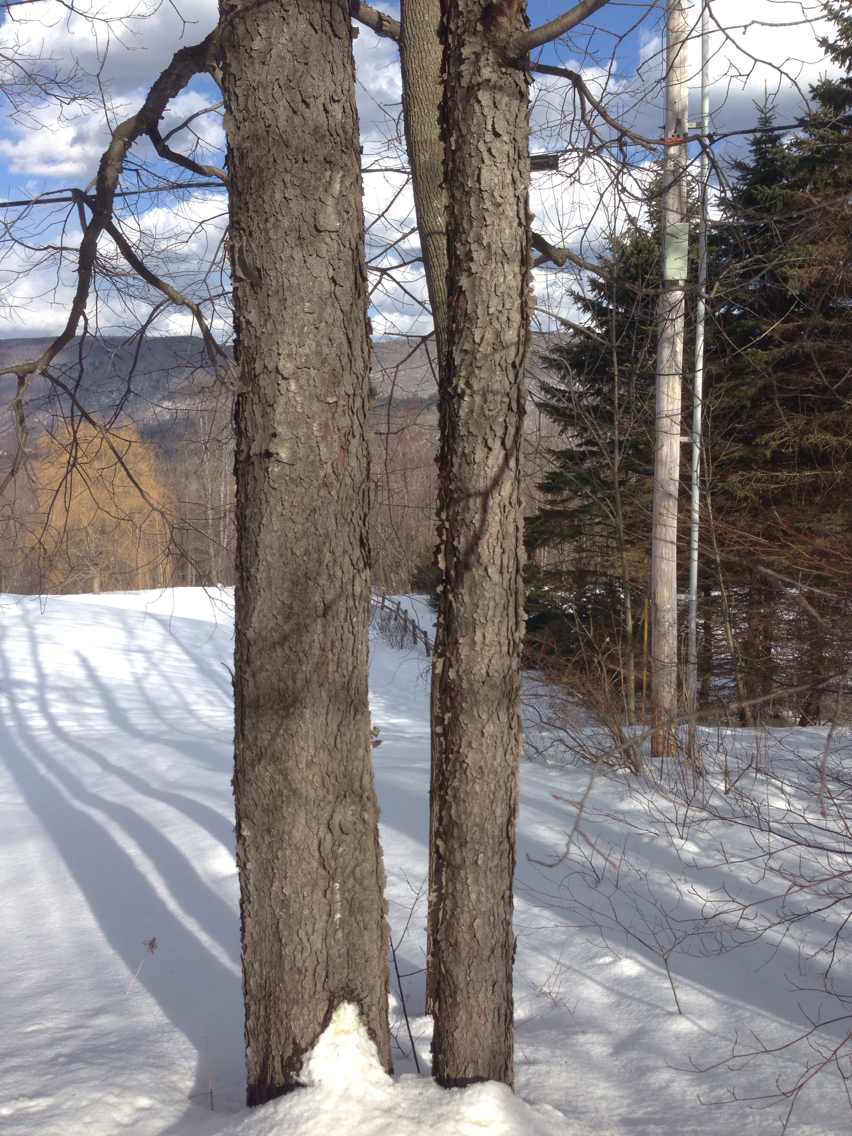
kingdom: Plantae
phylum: Tracheophyta
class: Magnoliopsida
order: Rosales
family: Rosaceae
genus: Prunus
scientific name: Prunus serotina
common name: Black cherry
